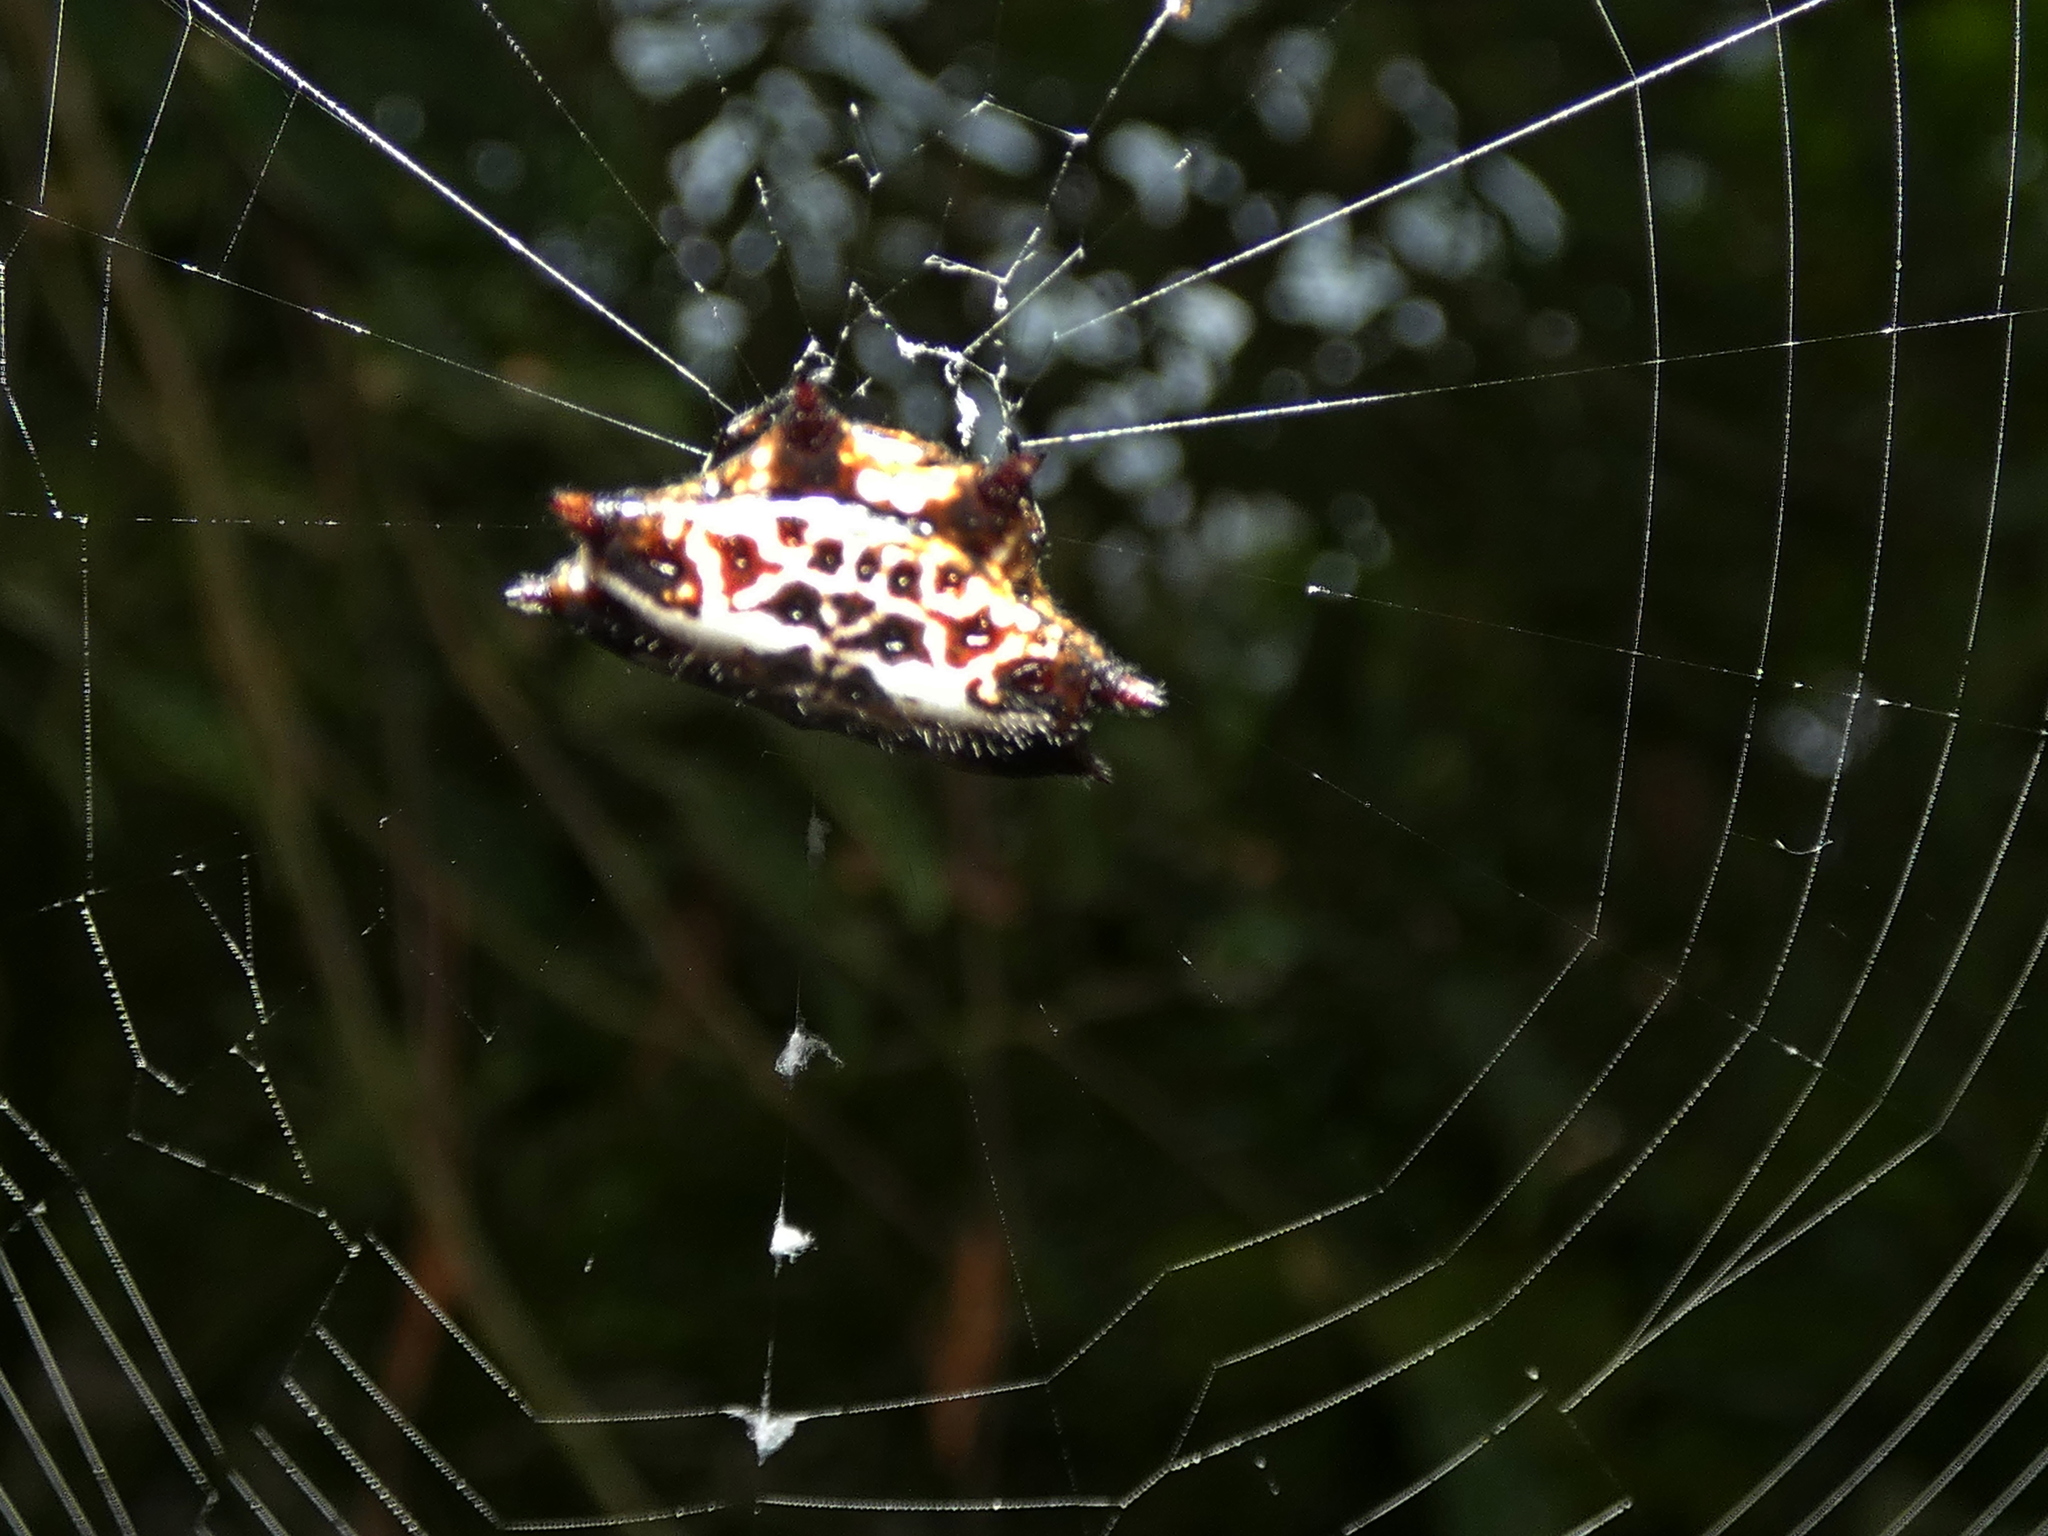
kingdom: Animalia
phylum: Arthropoda
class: Arachnida
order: Araneae
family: Araneidae
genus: Gasteracantha
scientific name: Gasteracantha cancriformis
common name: Orb weavers
